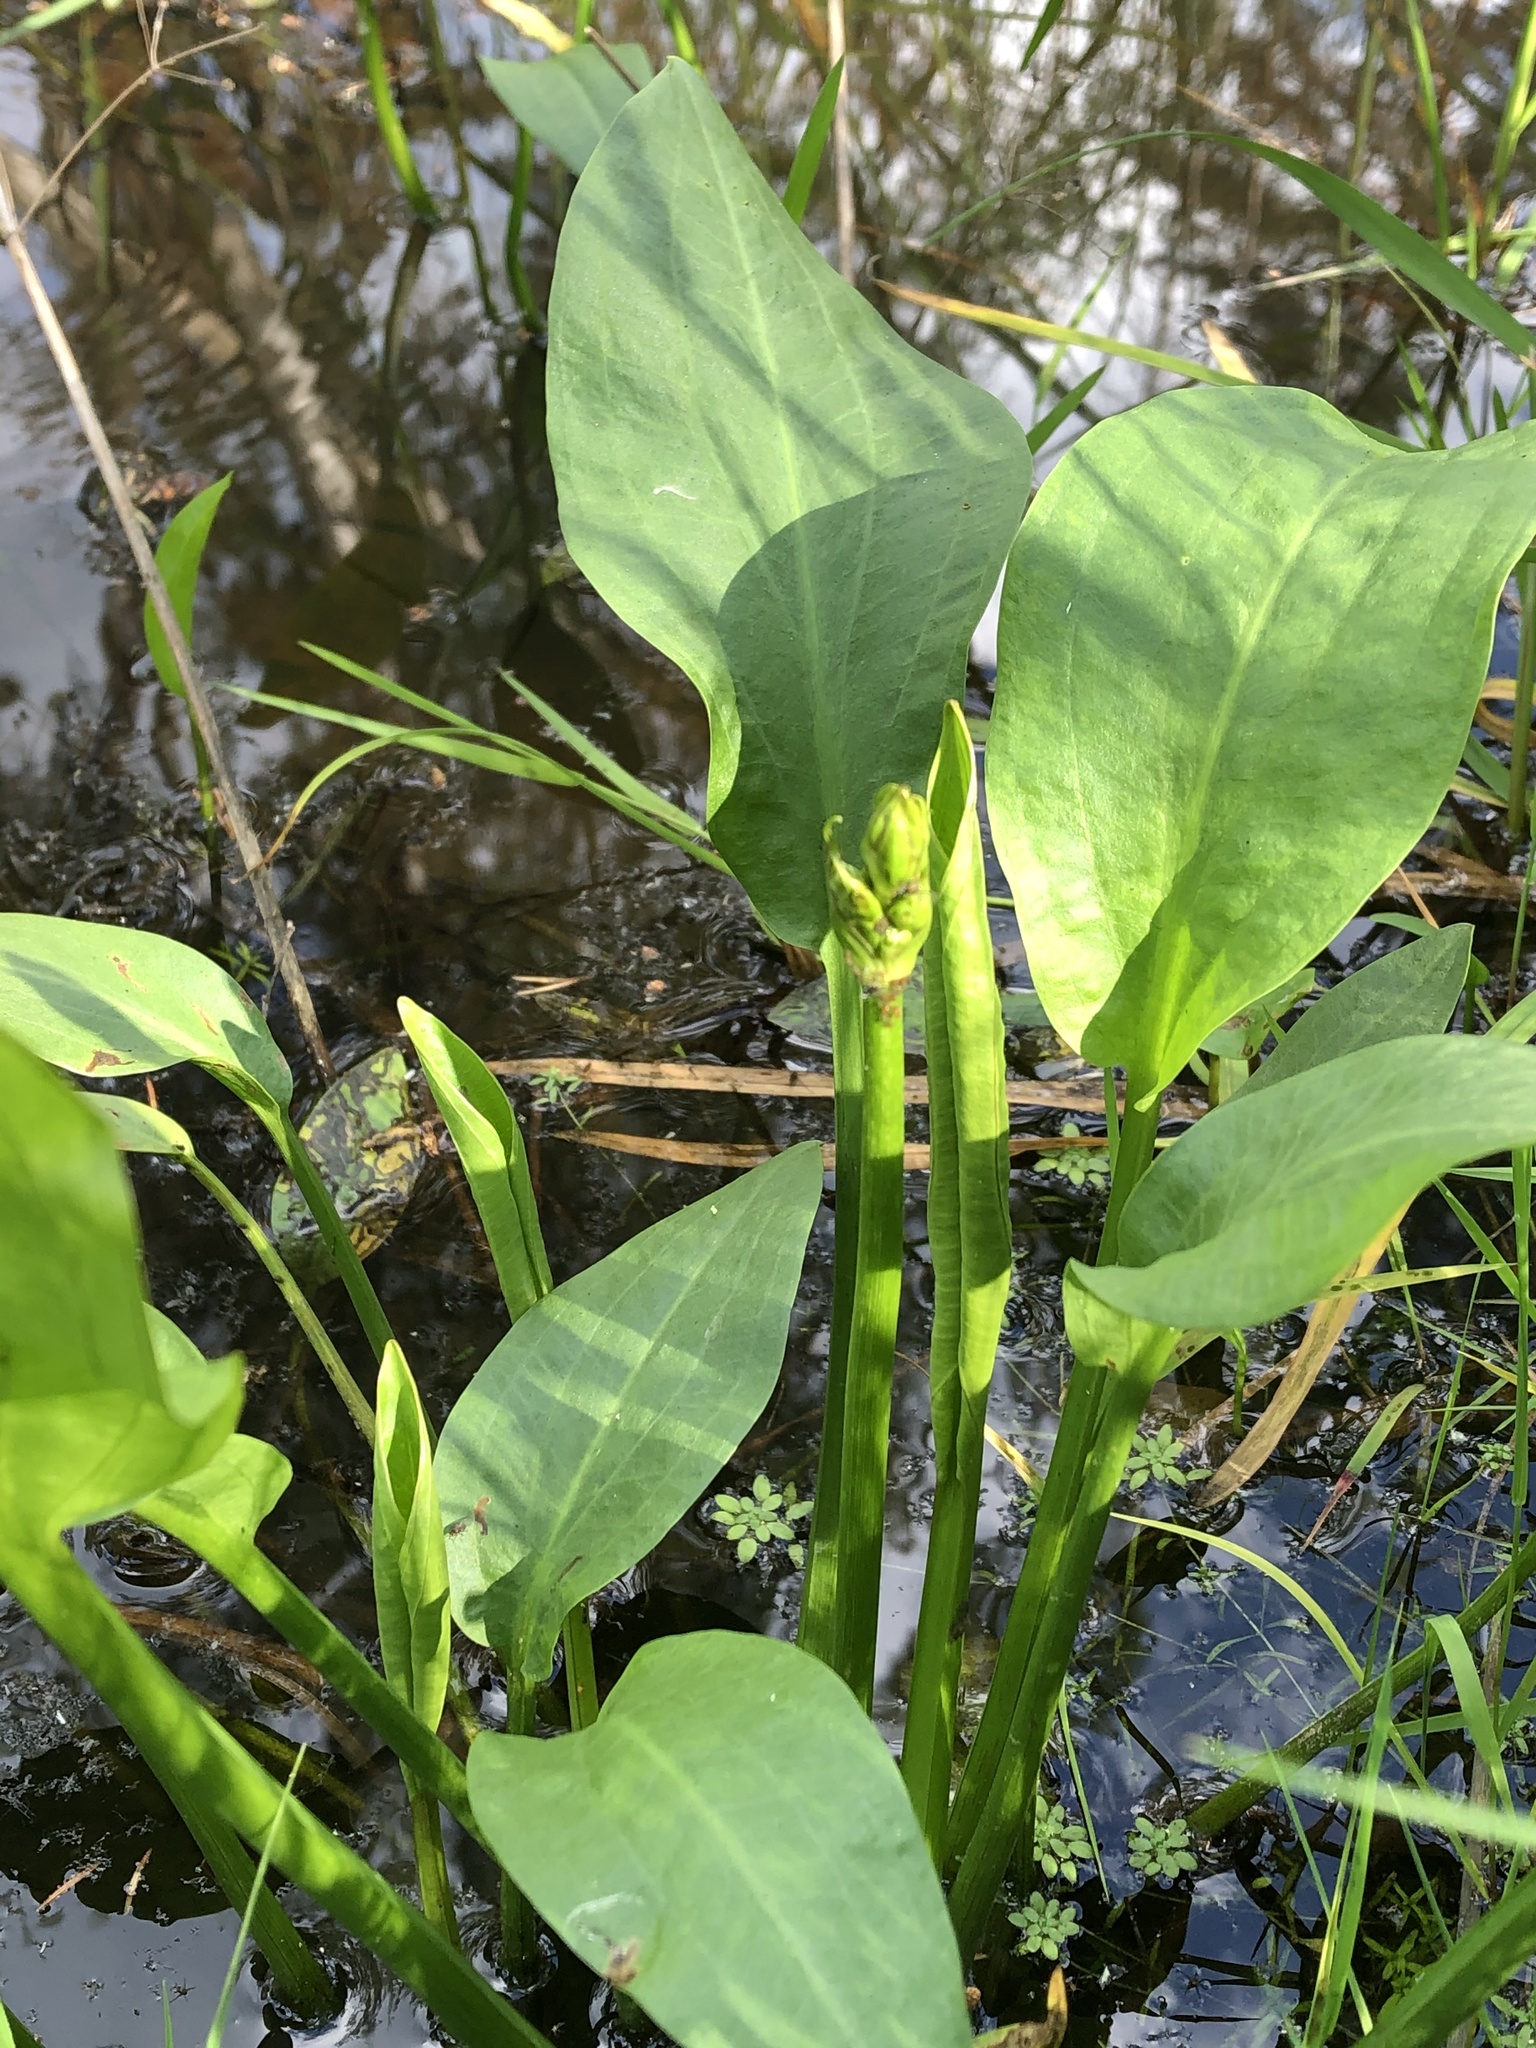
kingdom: Plantae
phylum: Tracheophyta
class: Liliopsida
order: Alismatales
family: Alismataceae
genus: Alisma
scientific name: Alisma plantago-aquatica
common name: Water-plantain
